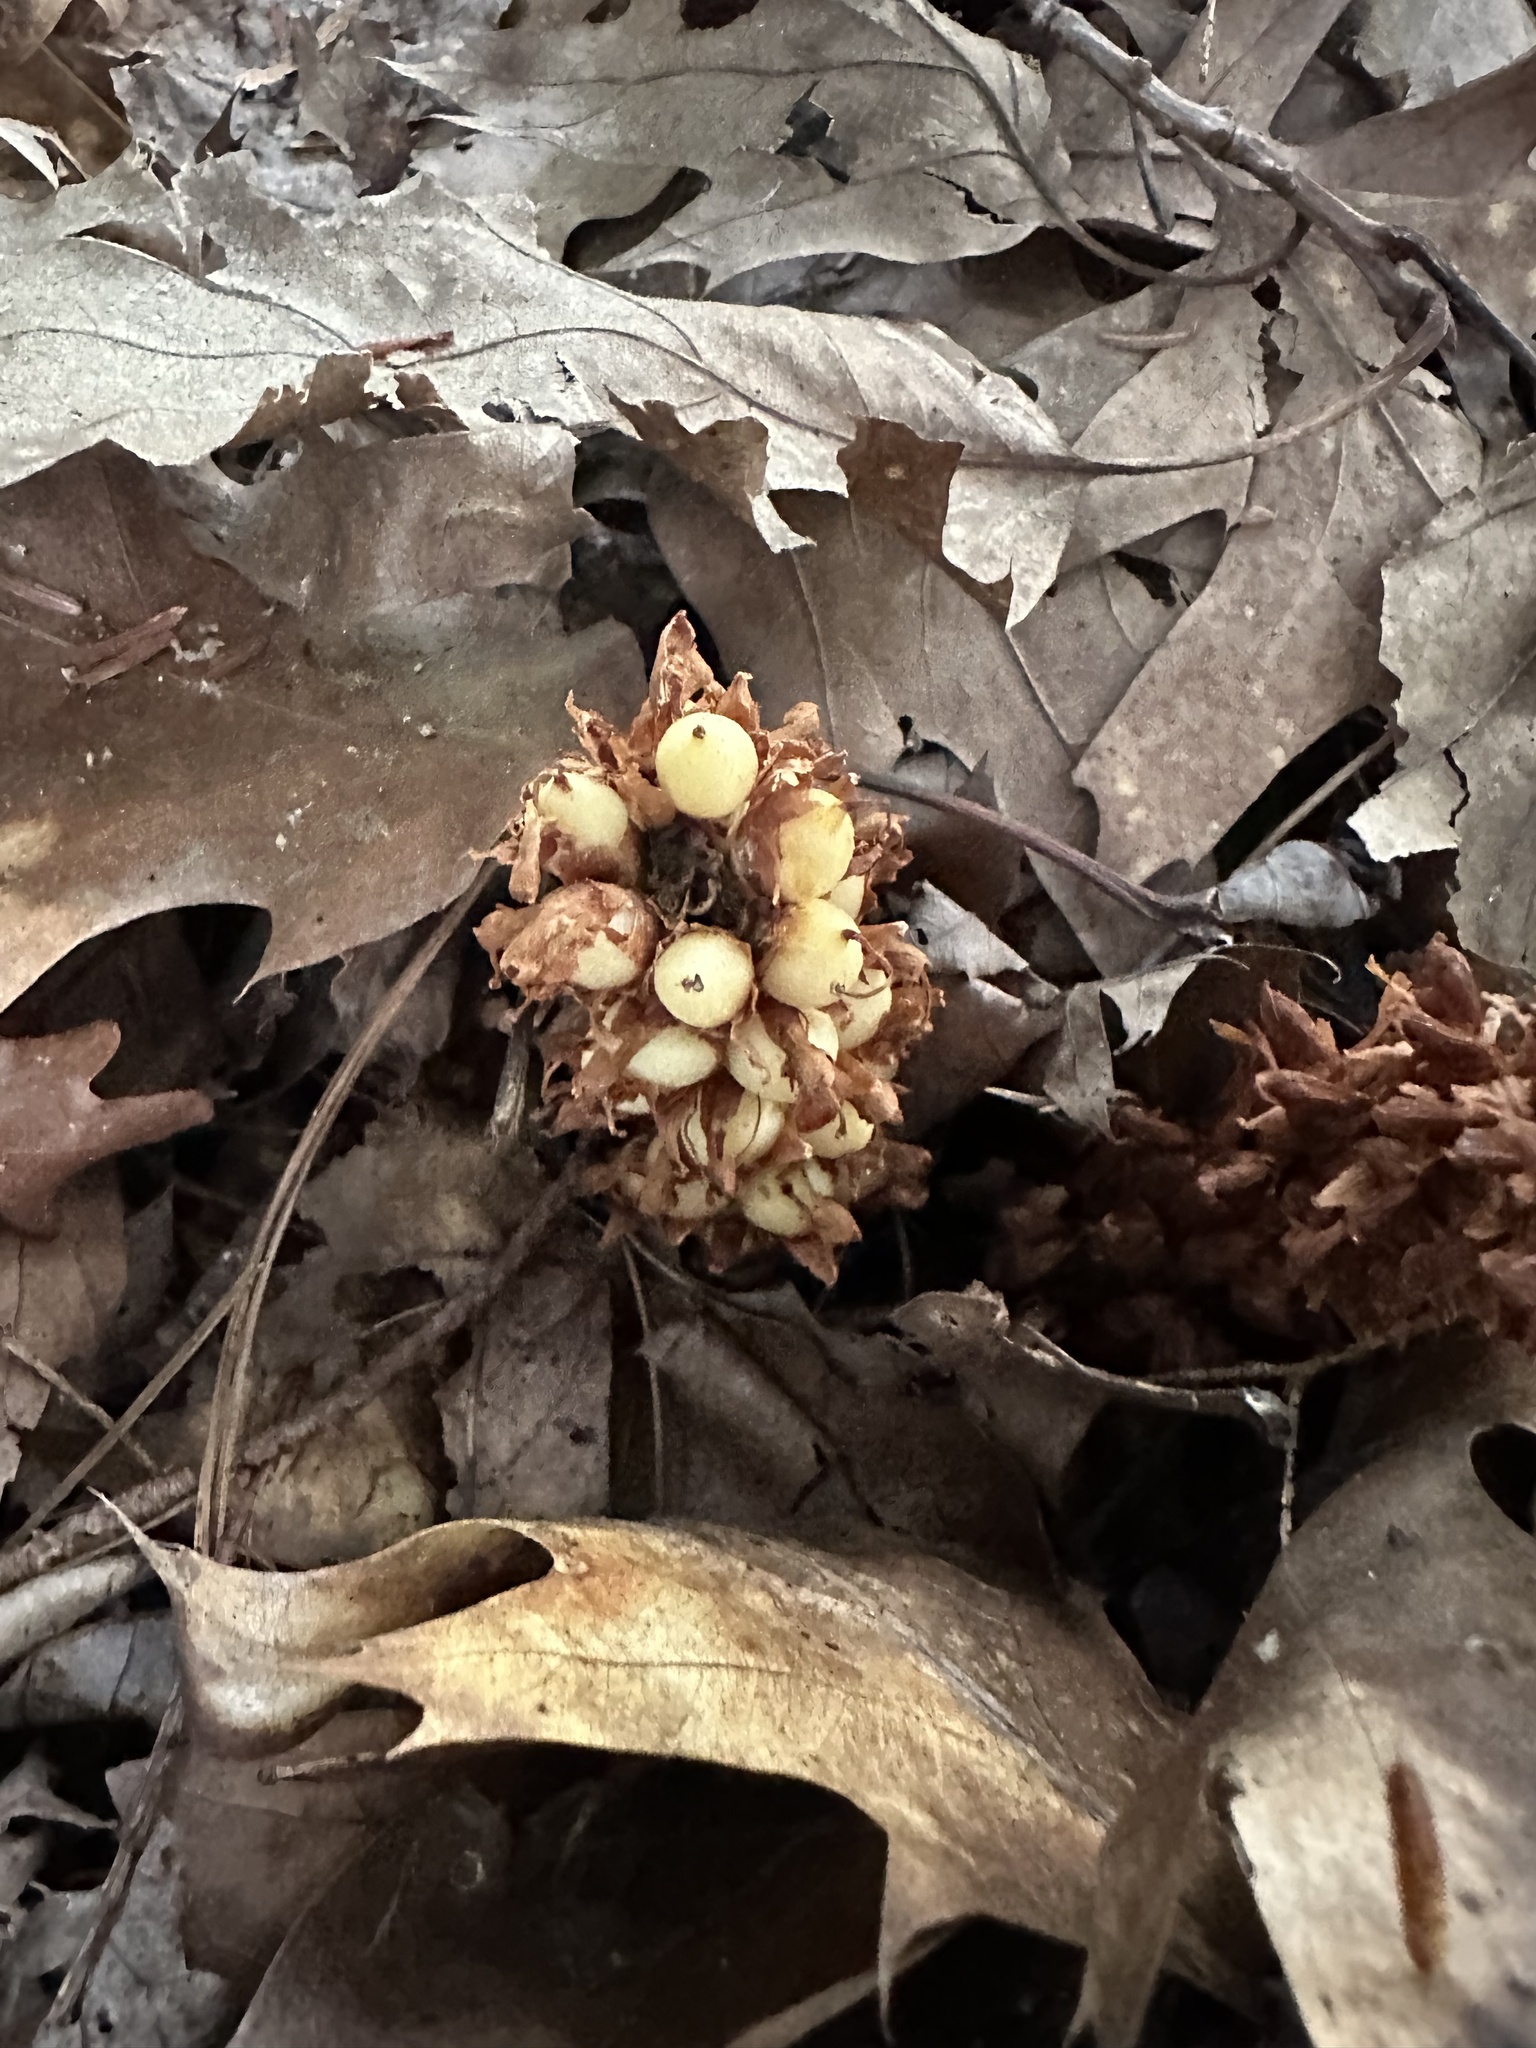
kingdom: Plantae
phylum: Tracheophyta
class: Magnoliopsida
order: Lamiales
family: Orobanchaceae
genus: Conopholis
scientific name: Conopholis americana
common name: American cancer-root
